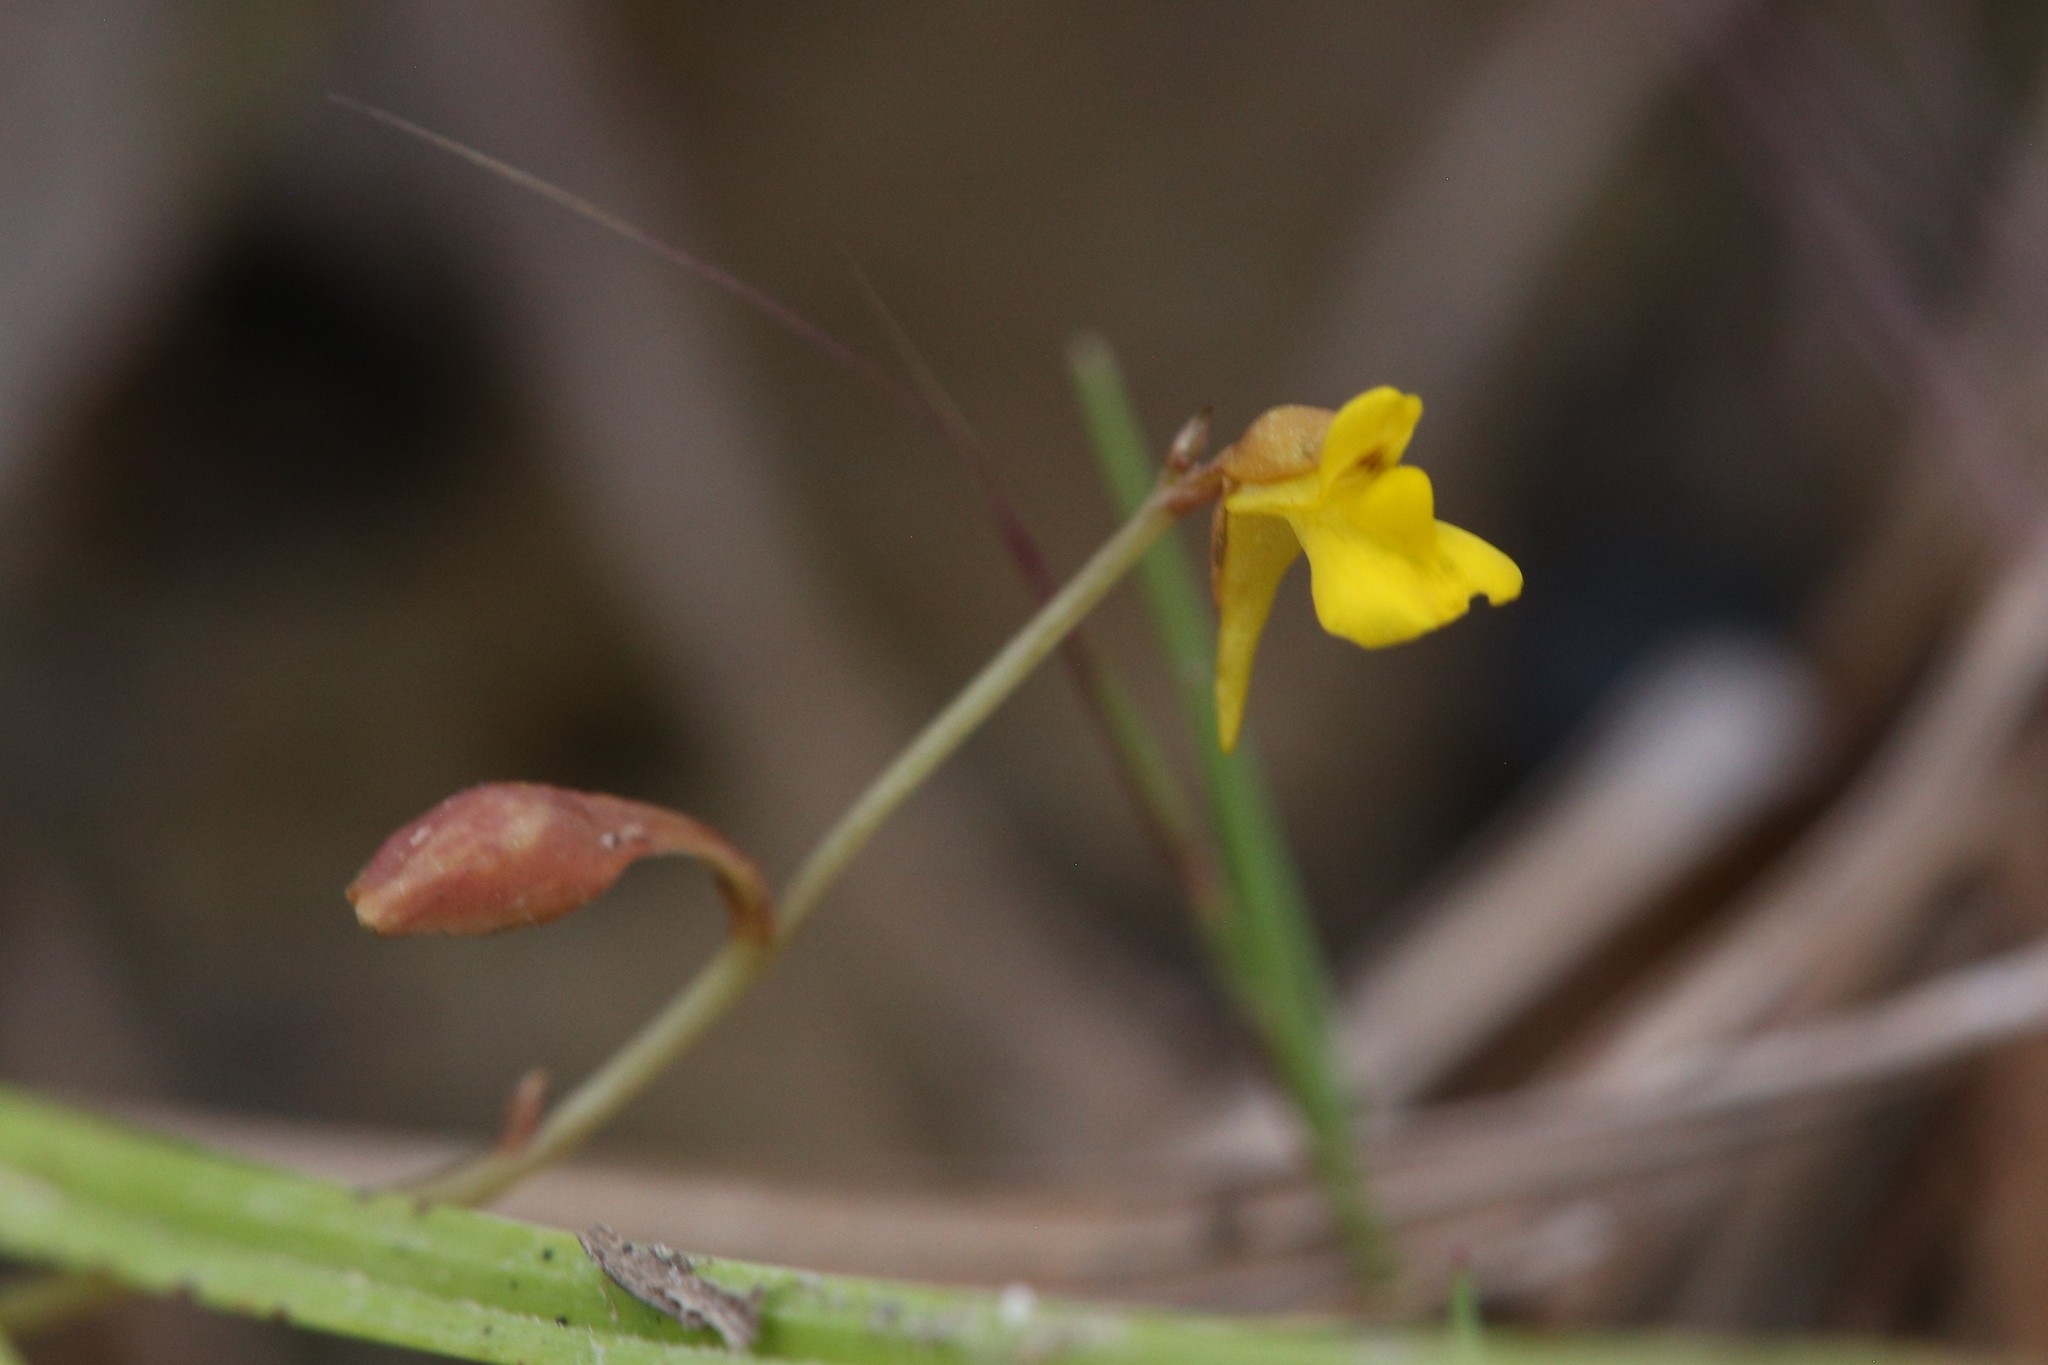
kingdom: Plantae
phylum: Tracheophyta
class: Magnoliopsida
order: Lamiales
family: Lentibulariaceae
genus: Utricularia
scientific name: Utricularia bifida
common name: Bifid bladderwort
